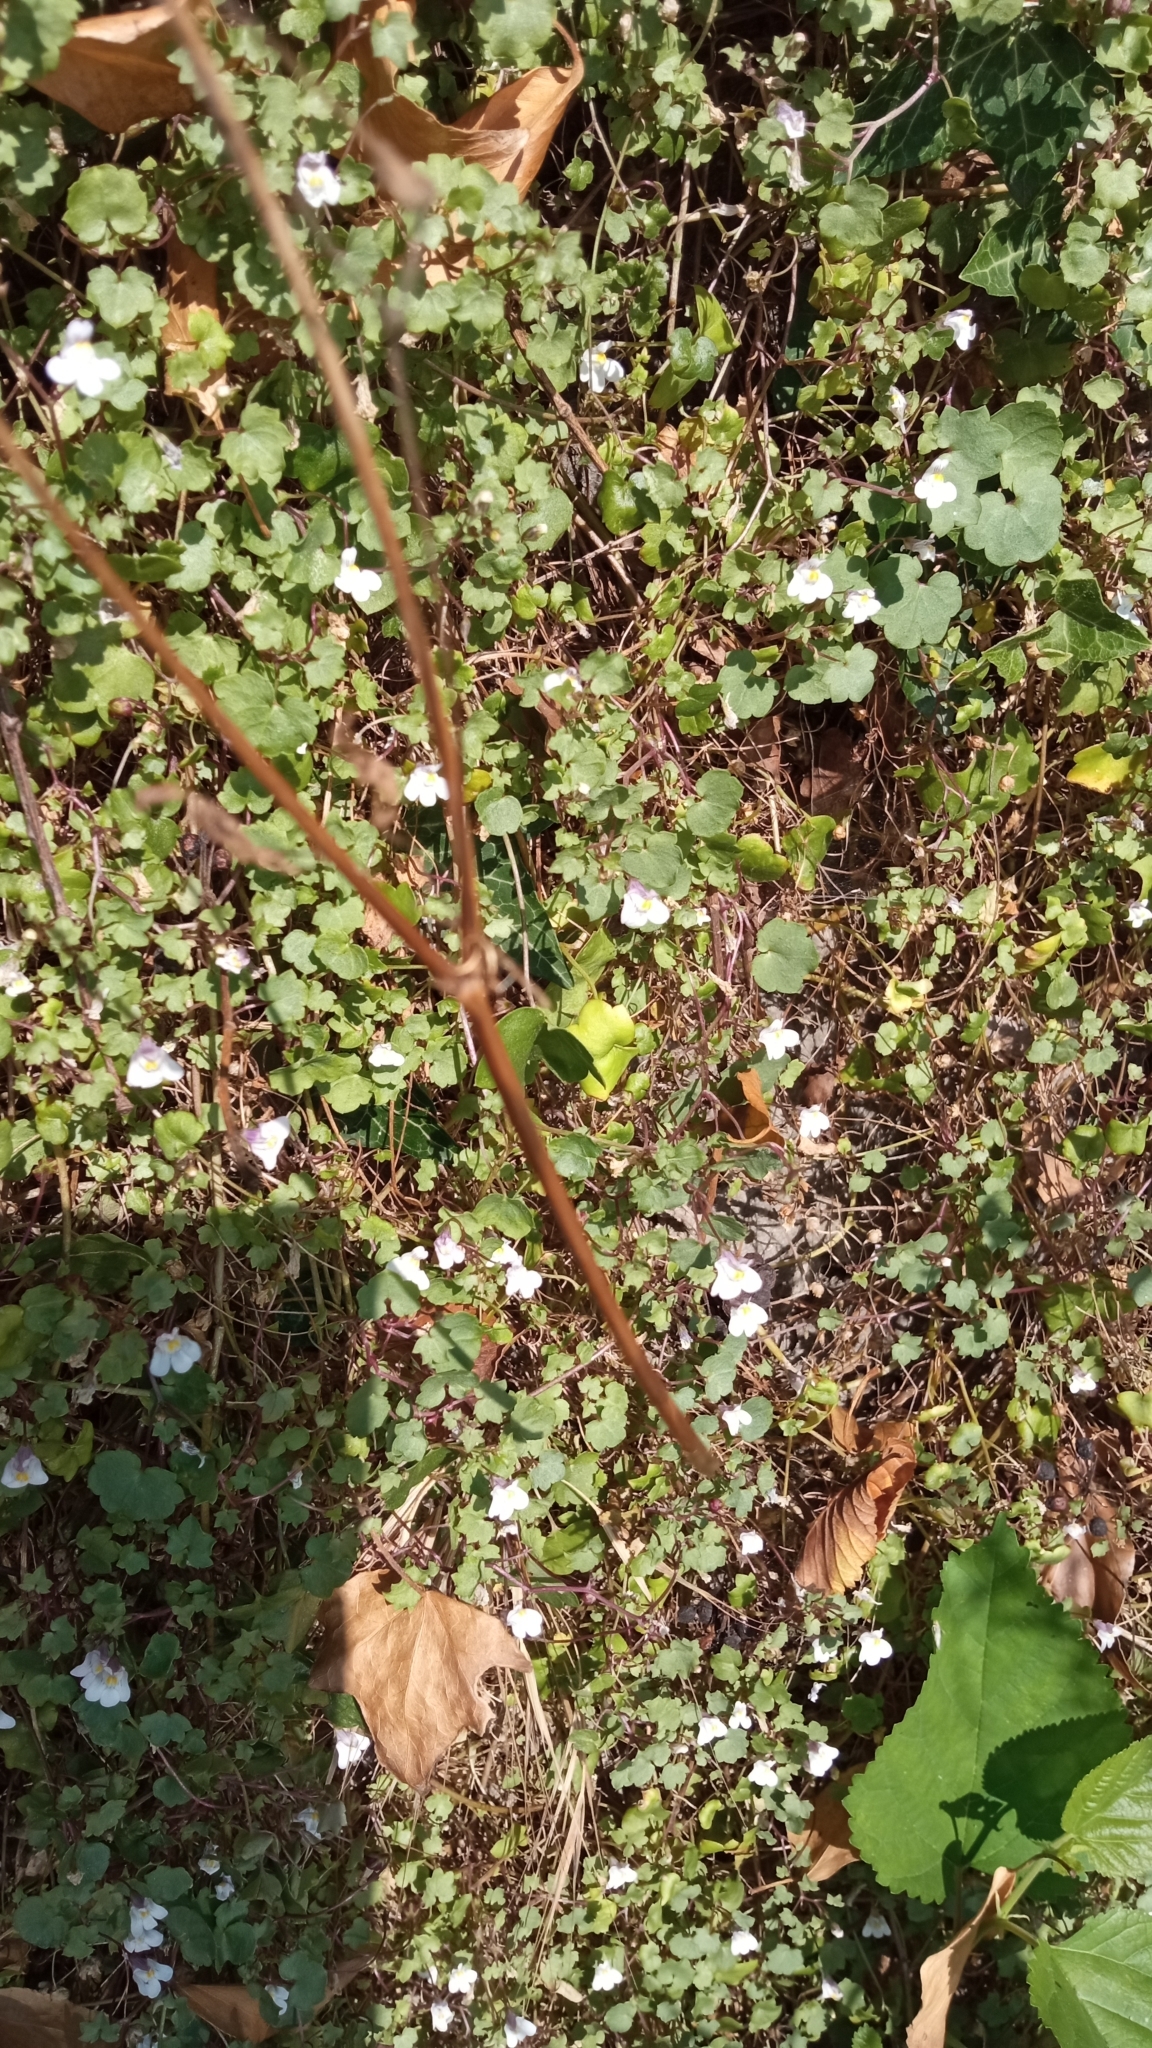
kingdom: Plantae
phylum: Tracheophyta
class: Magnoliopsida
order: Lamiales
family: Plantaginaceae
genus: Cymbalaria
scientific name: Cymbalaria muralis
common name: Ivy-leaved toadflax
